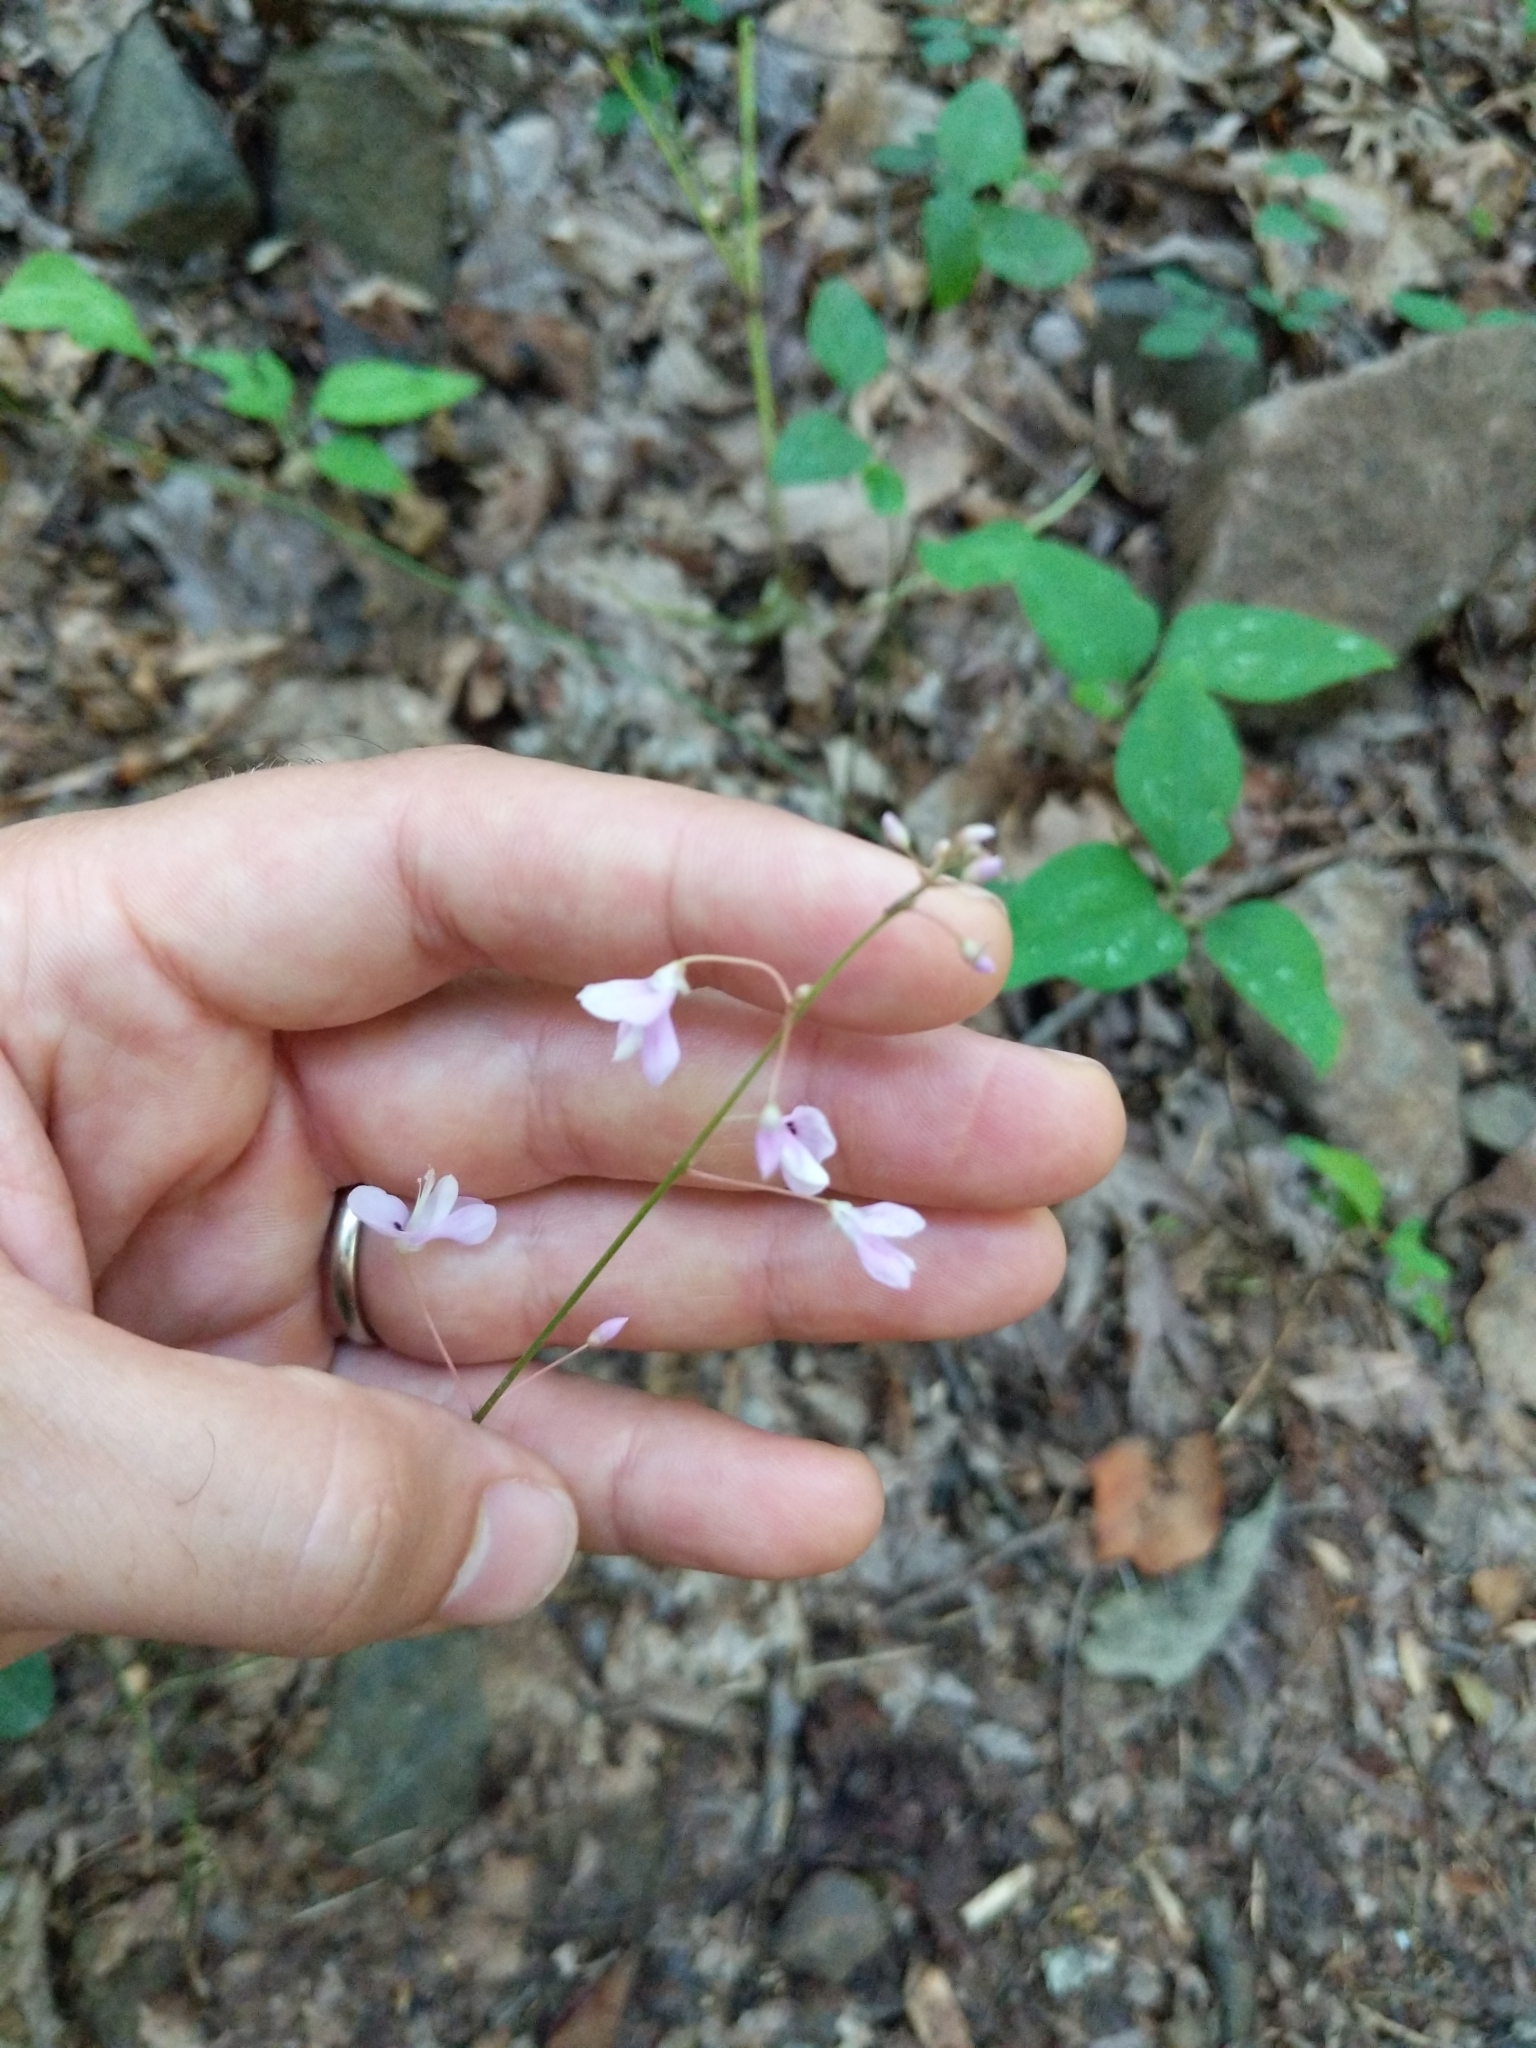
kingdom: Plantae
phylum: Tracheophyta
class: Magnoliopsida
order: Fabales
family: Fabaceae
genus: Hylodesmum
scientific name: Hylodesmum nudiflorum
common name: Bare-stemmed tick-trefoil
